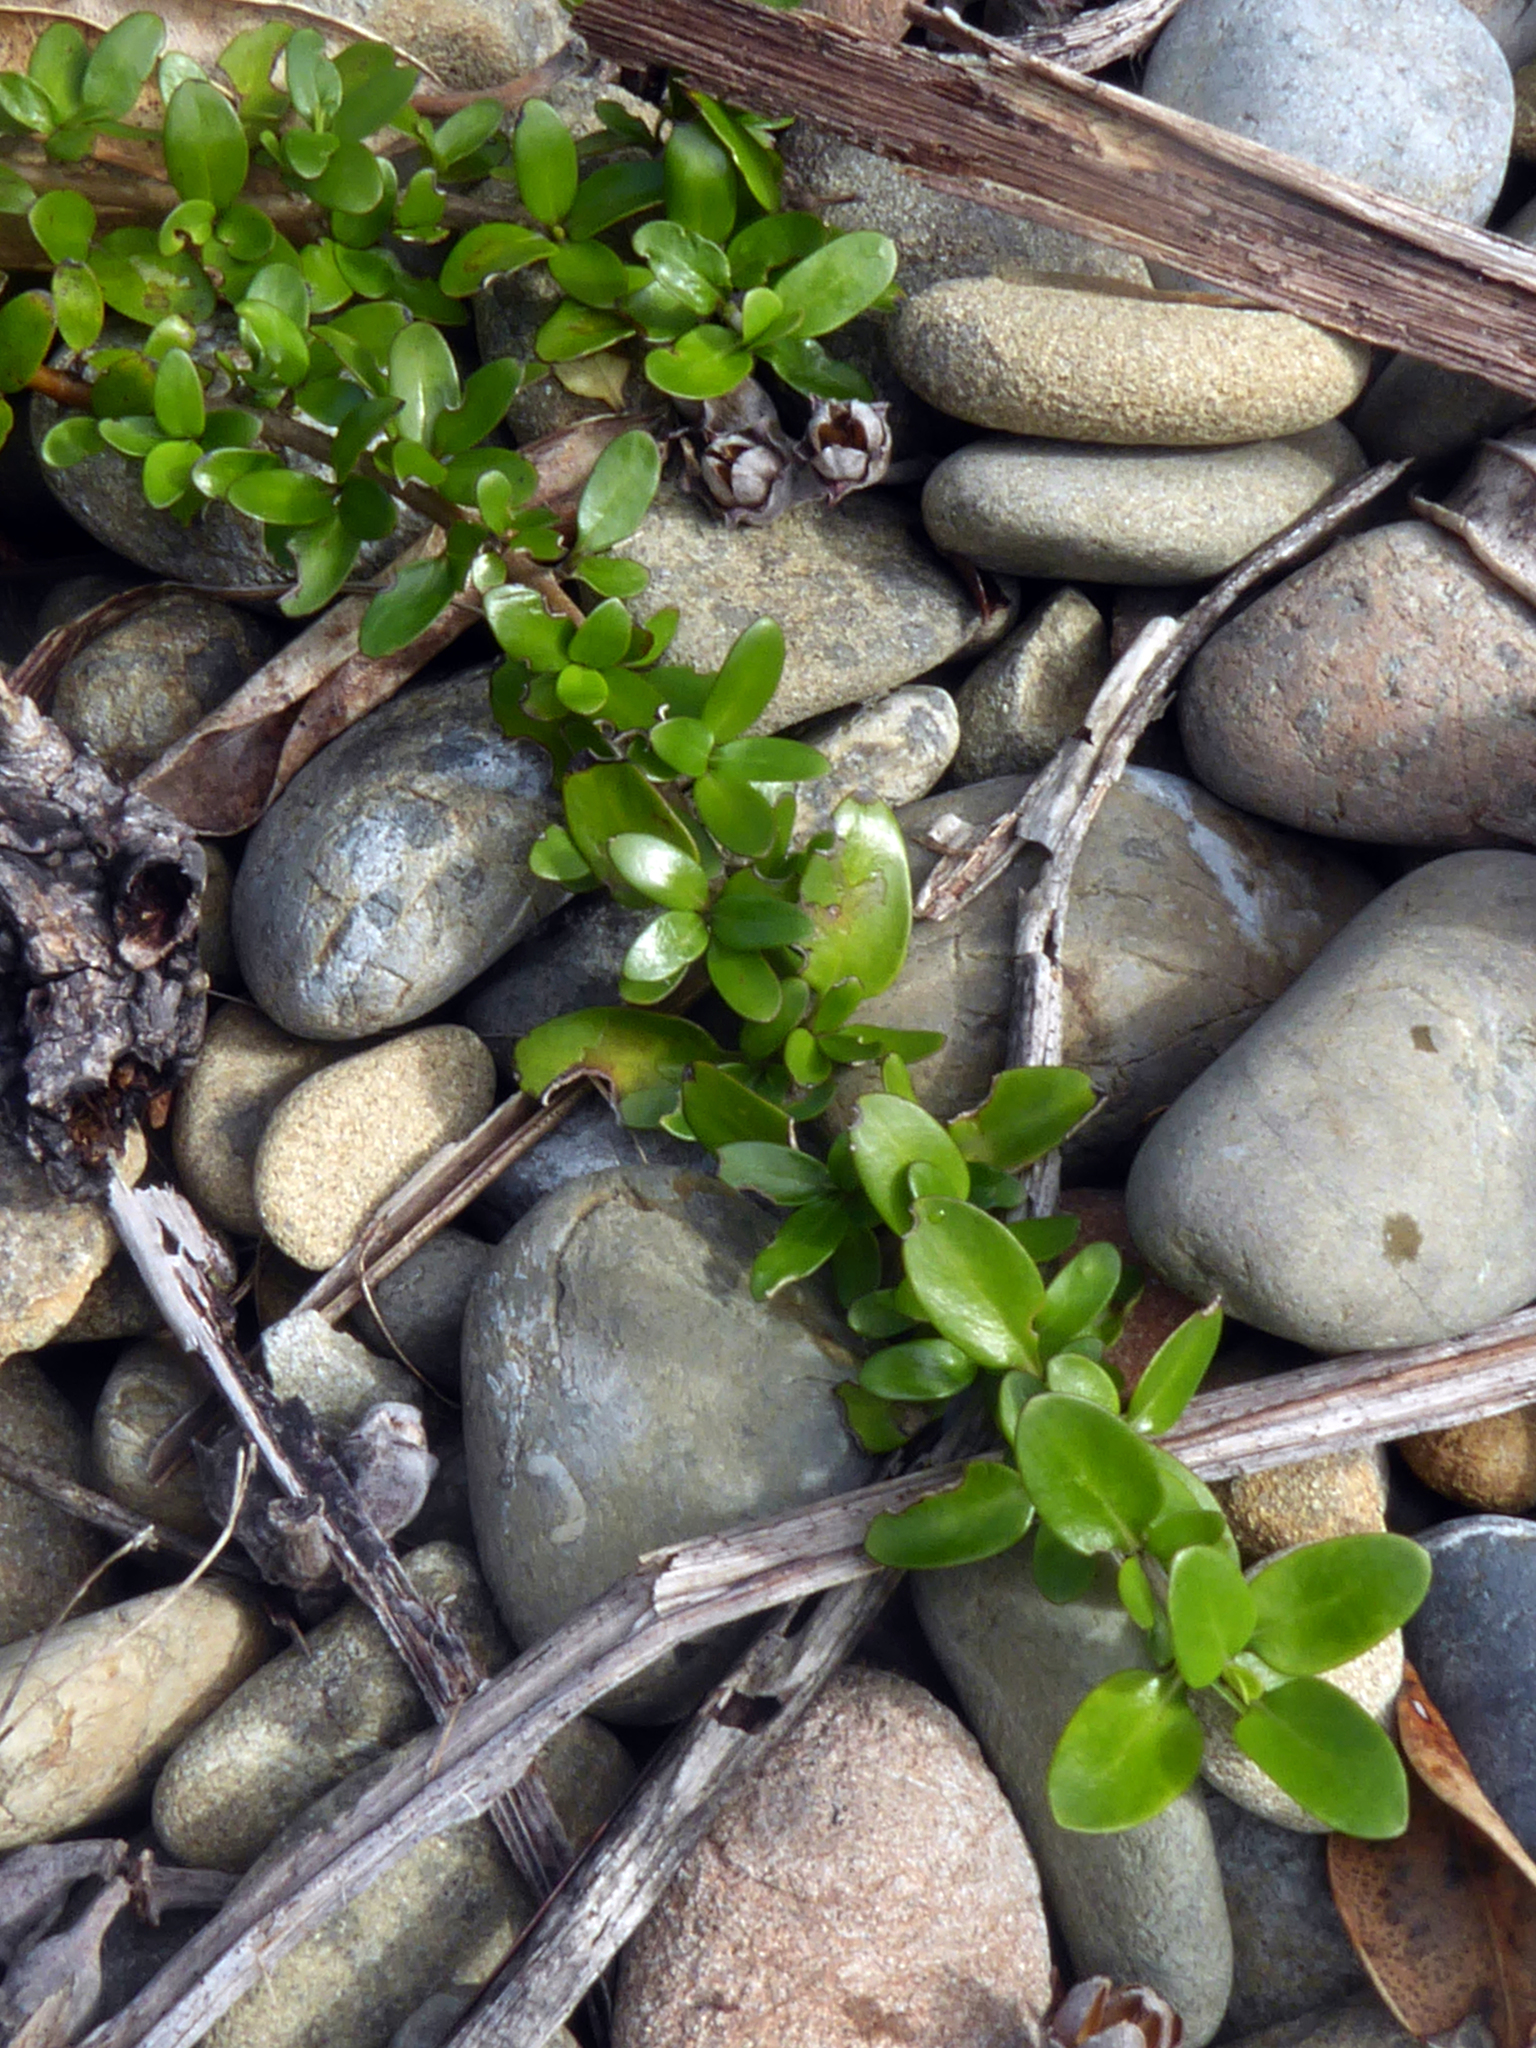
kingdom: Plantae
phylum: Tracheophyta
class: Magnoliopsida
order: Gentianales
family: Rubiaceae
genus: Coprosma
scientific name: Coprosma propinqua
